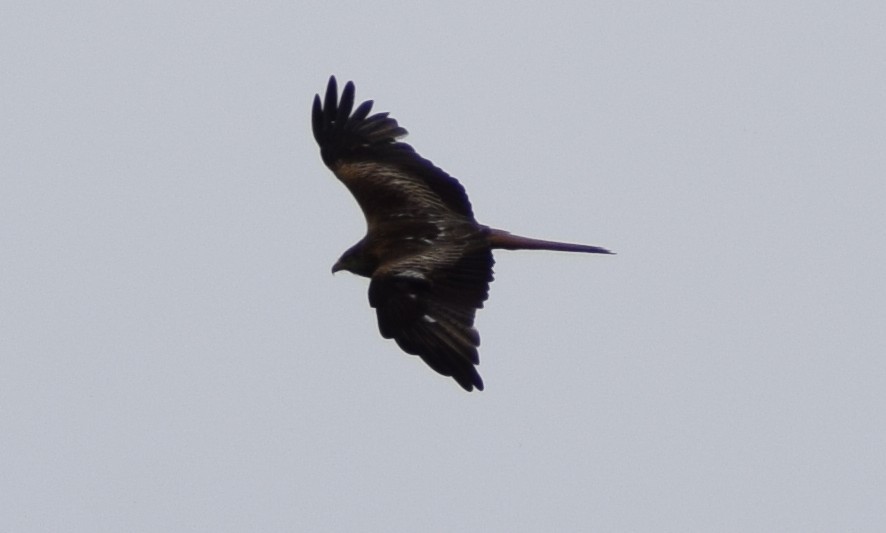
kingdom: Animalia
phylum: Chordata
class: Aves
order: Accipitriformes
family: Accipitridae
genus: Milvus
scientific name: Milvus milvus
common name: Red kite
